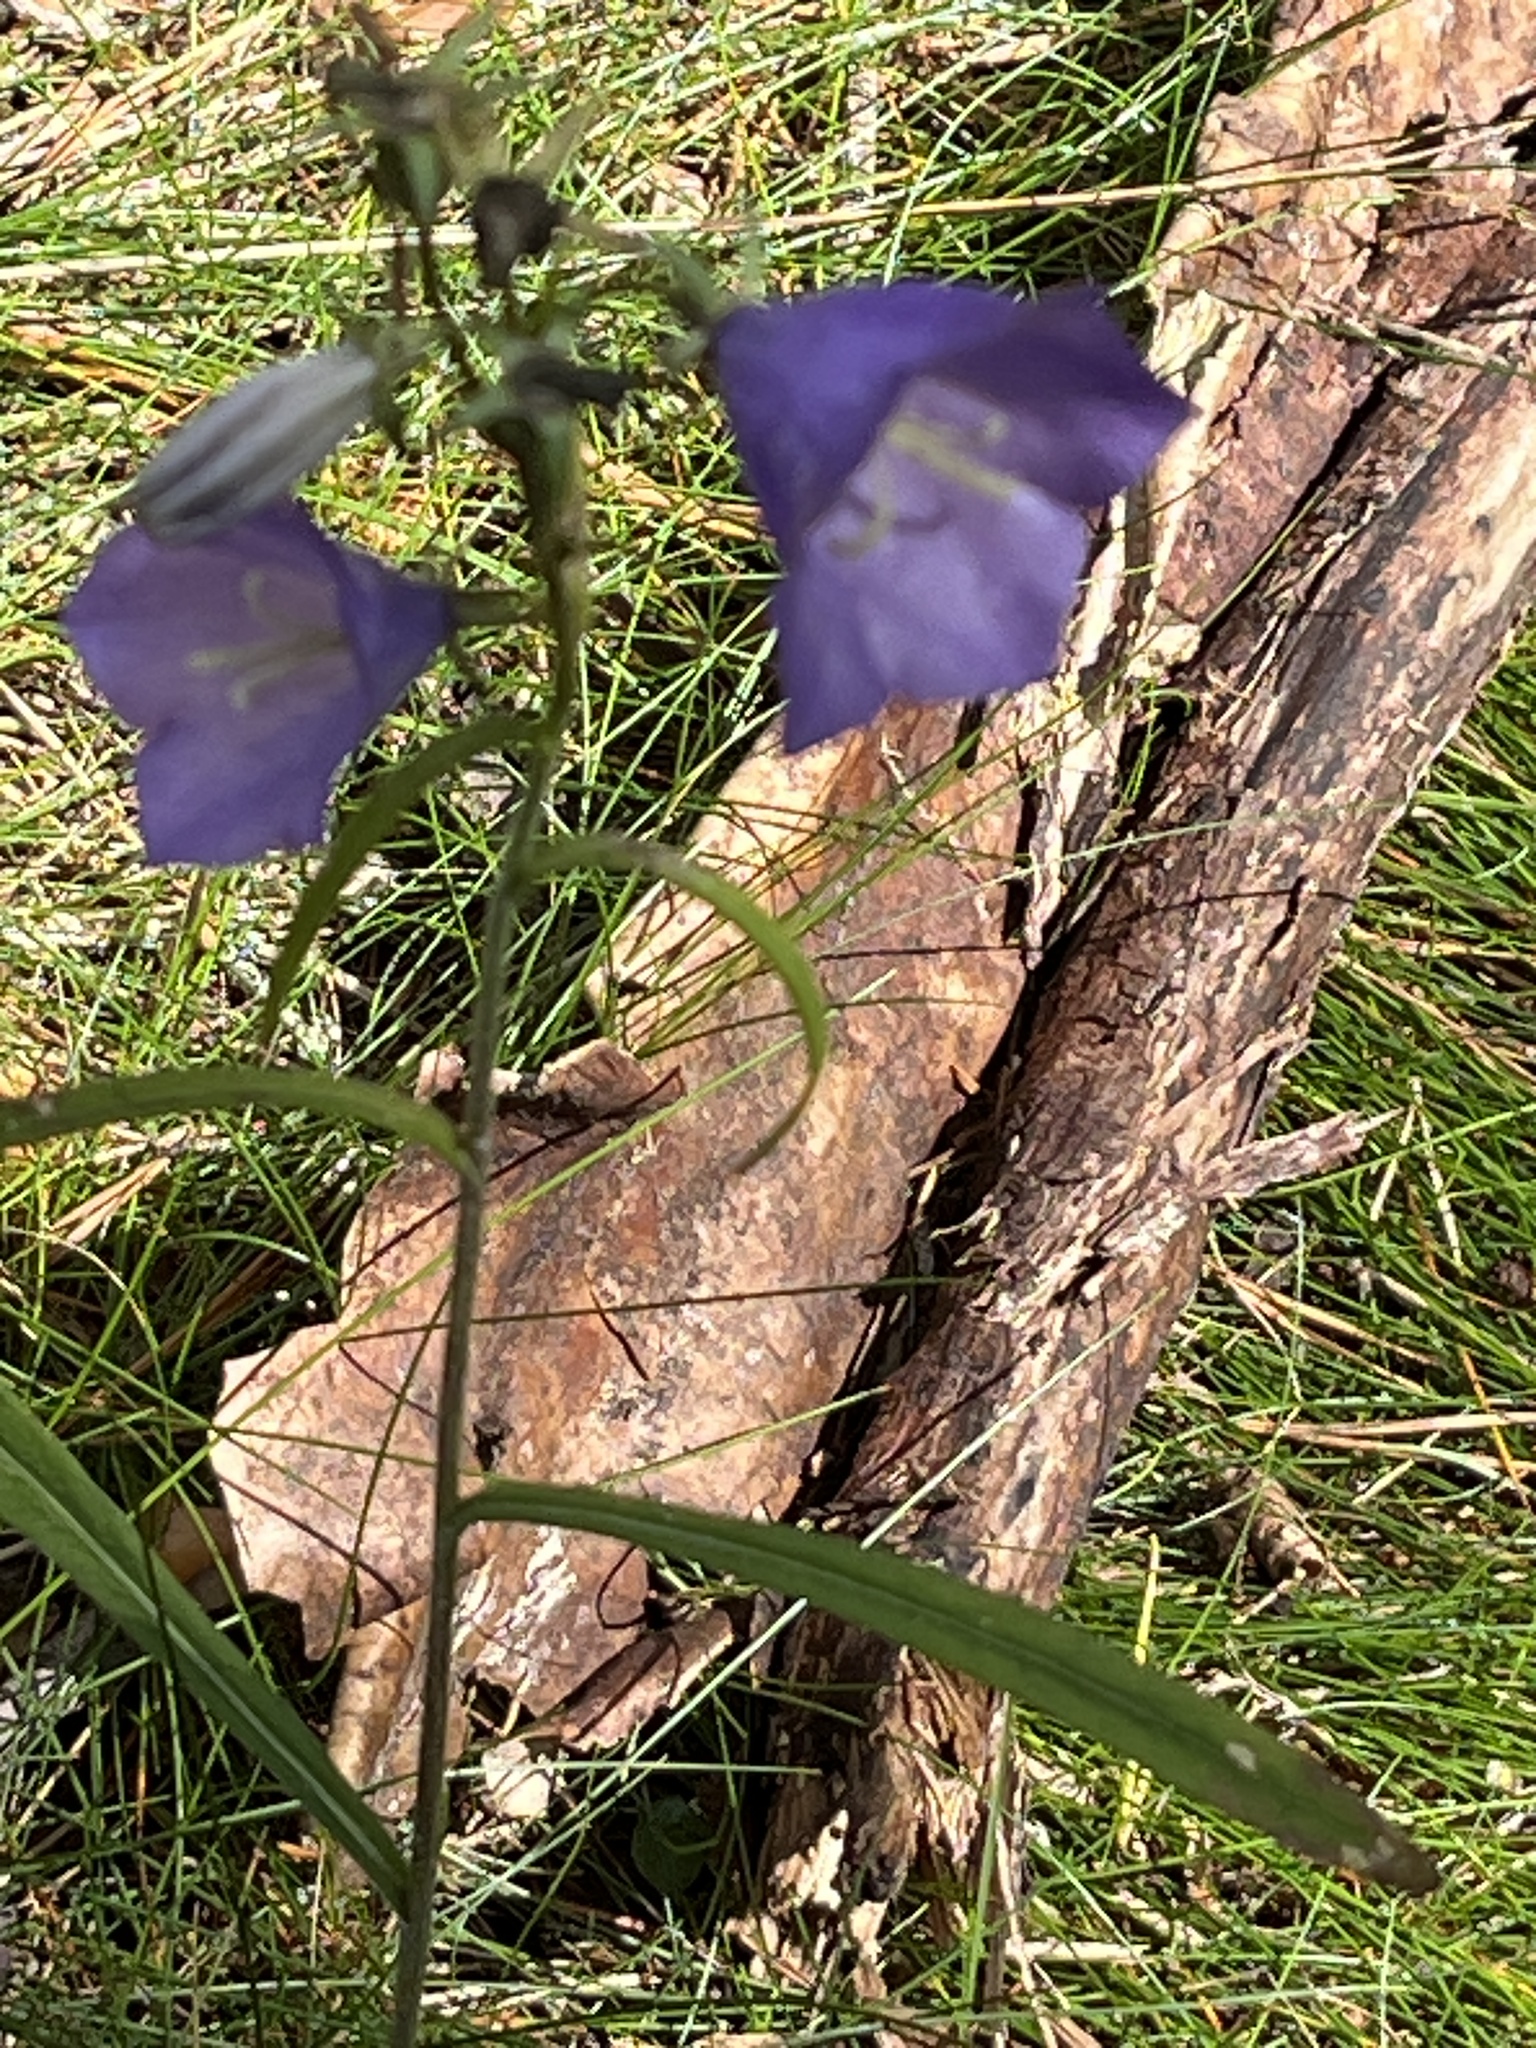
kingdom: Plantae
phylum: Tracheophyta
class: Magnoliopsida
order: Asterales
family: Campanulaceae
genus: Campanula
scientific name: Campanula persicifolia
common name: Peach-leaved bellflower
